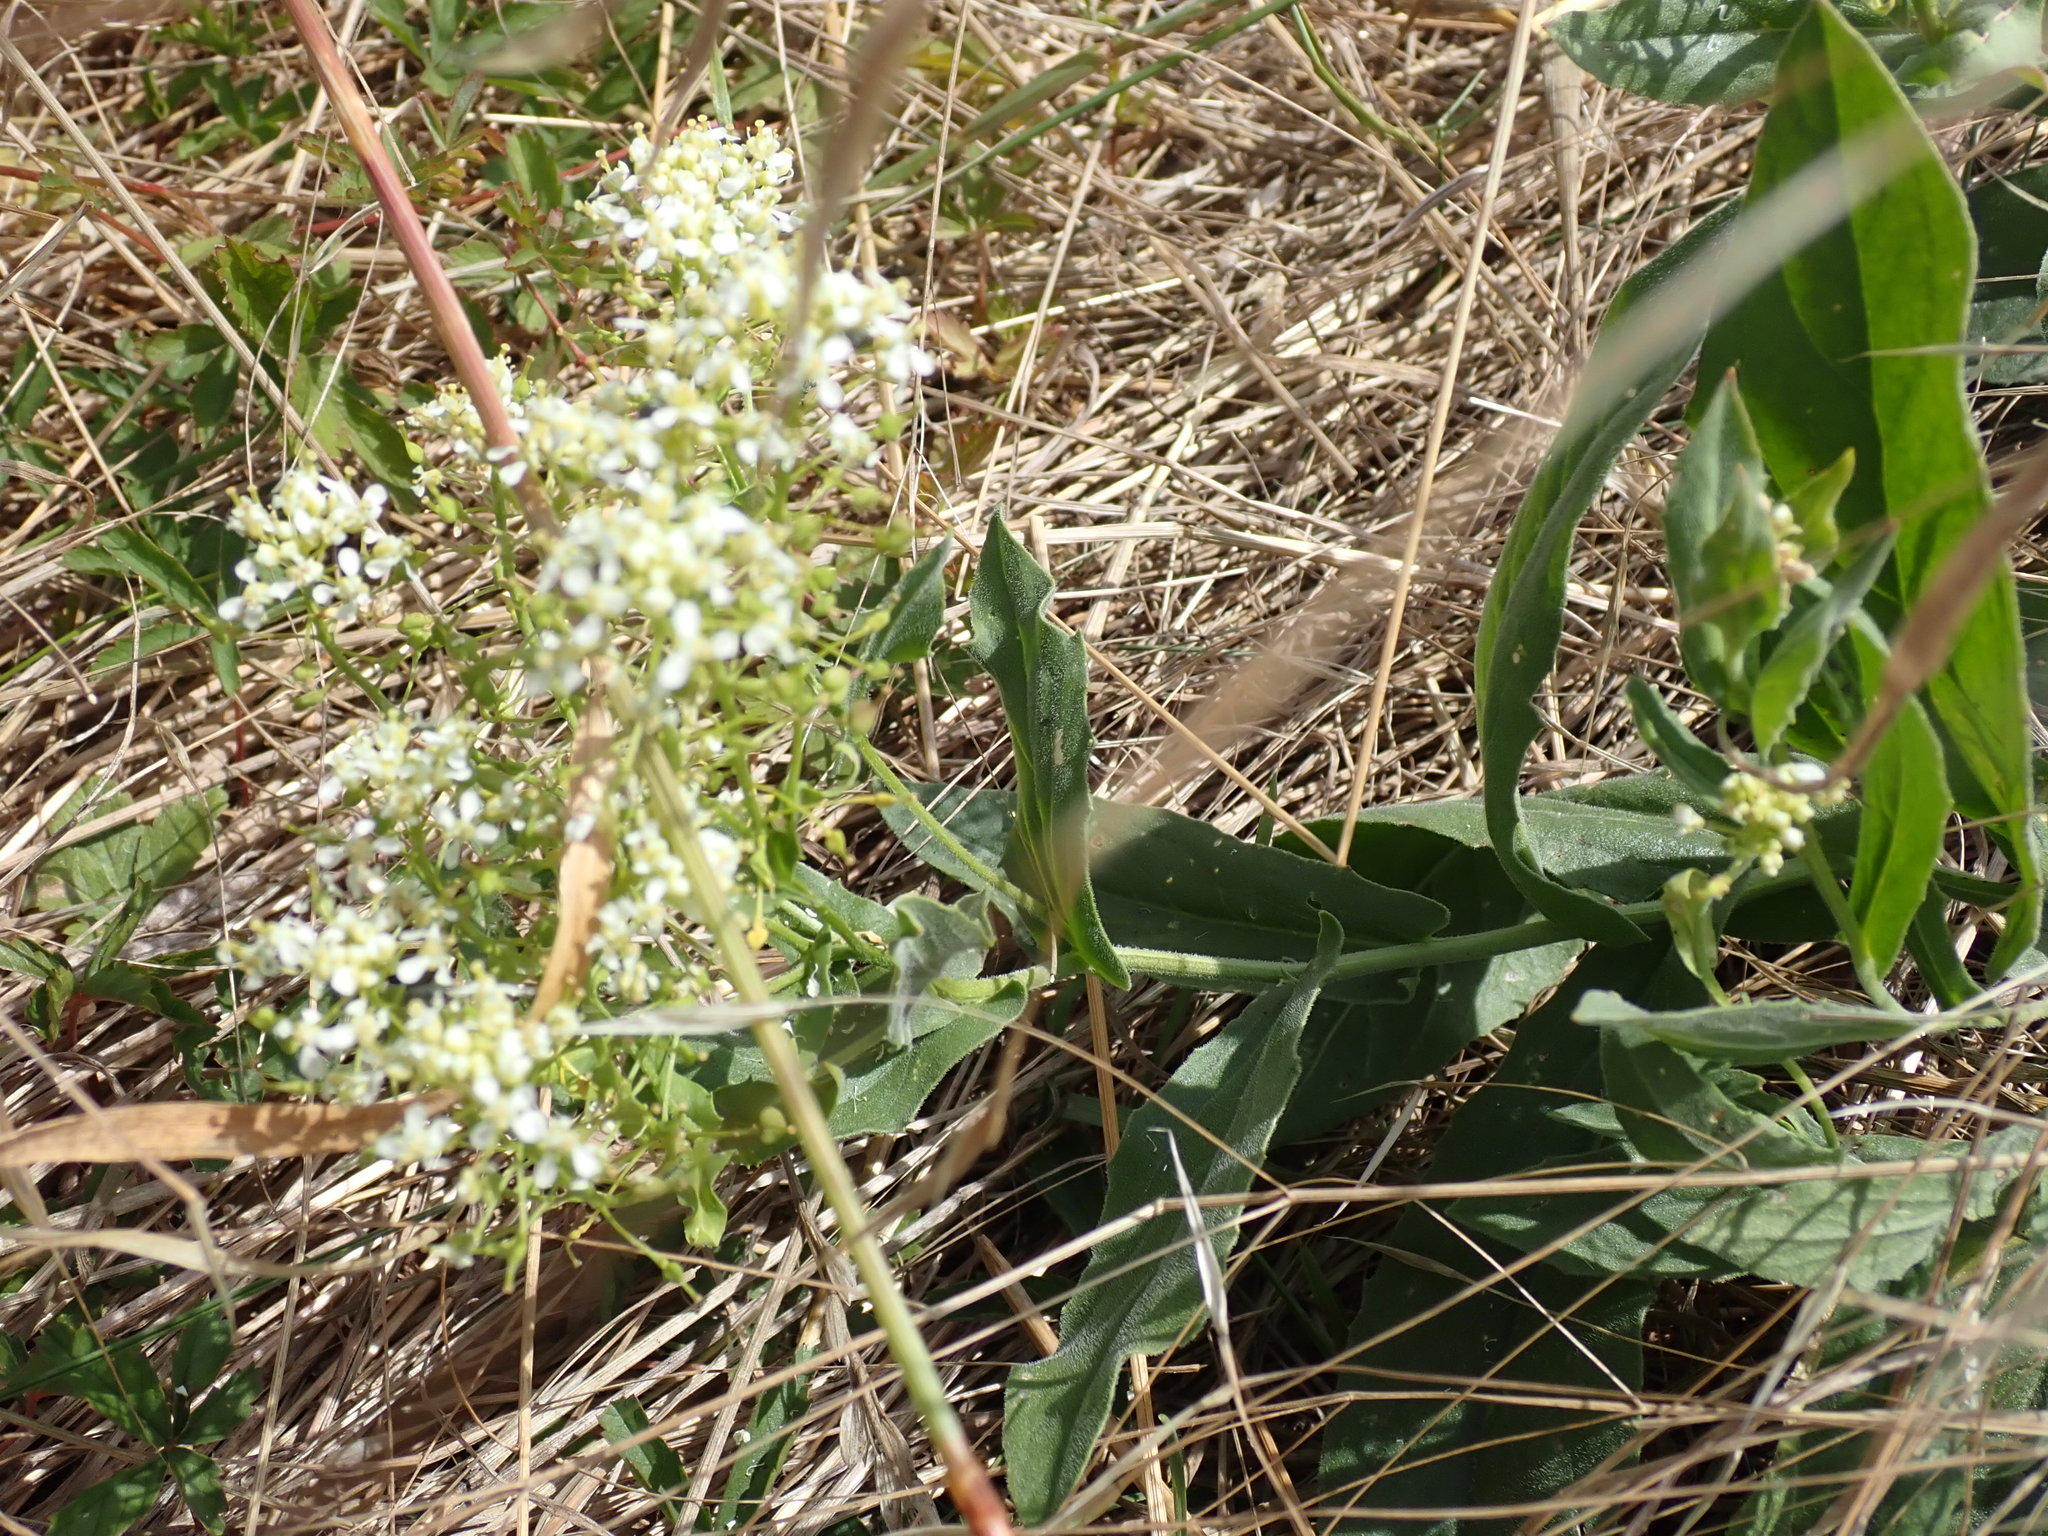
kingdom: Plantae
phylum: Tracheophyta
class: Magnoliopsida
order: Brassicales
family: Brassicaceae
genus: Lepidium
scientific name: Lepidium draba
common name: Hoary cress
